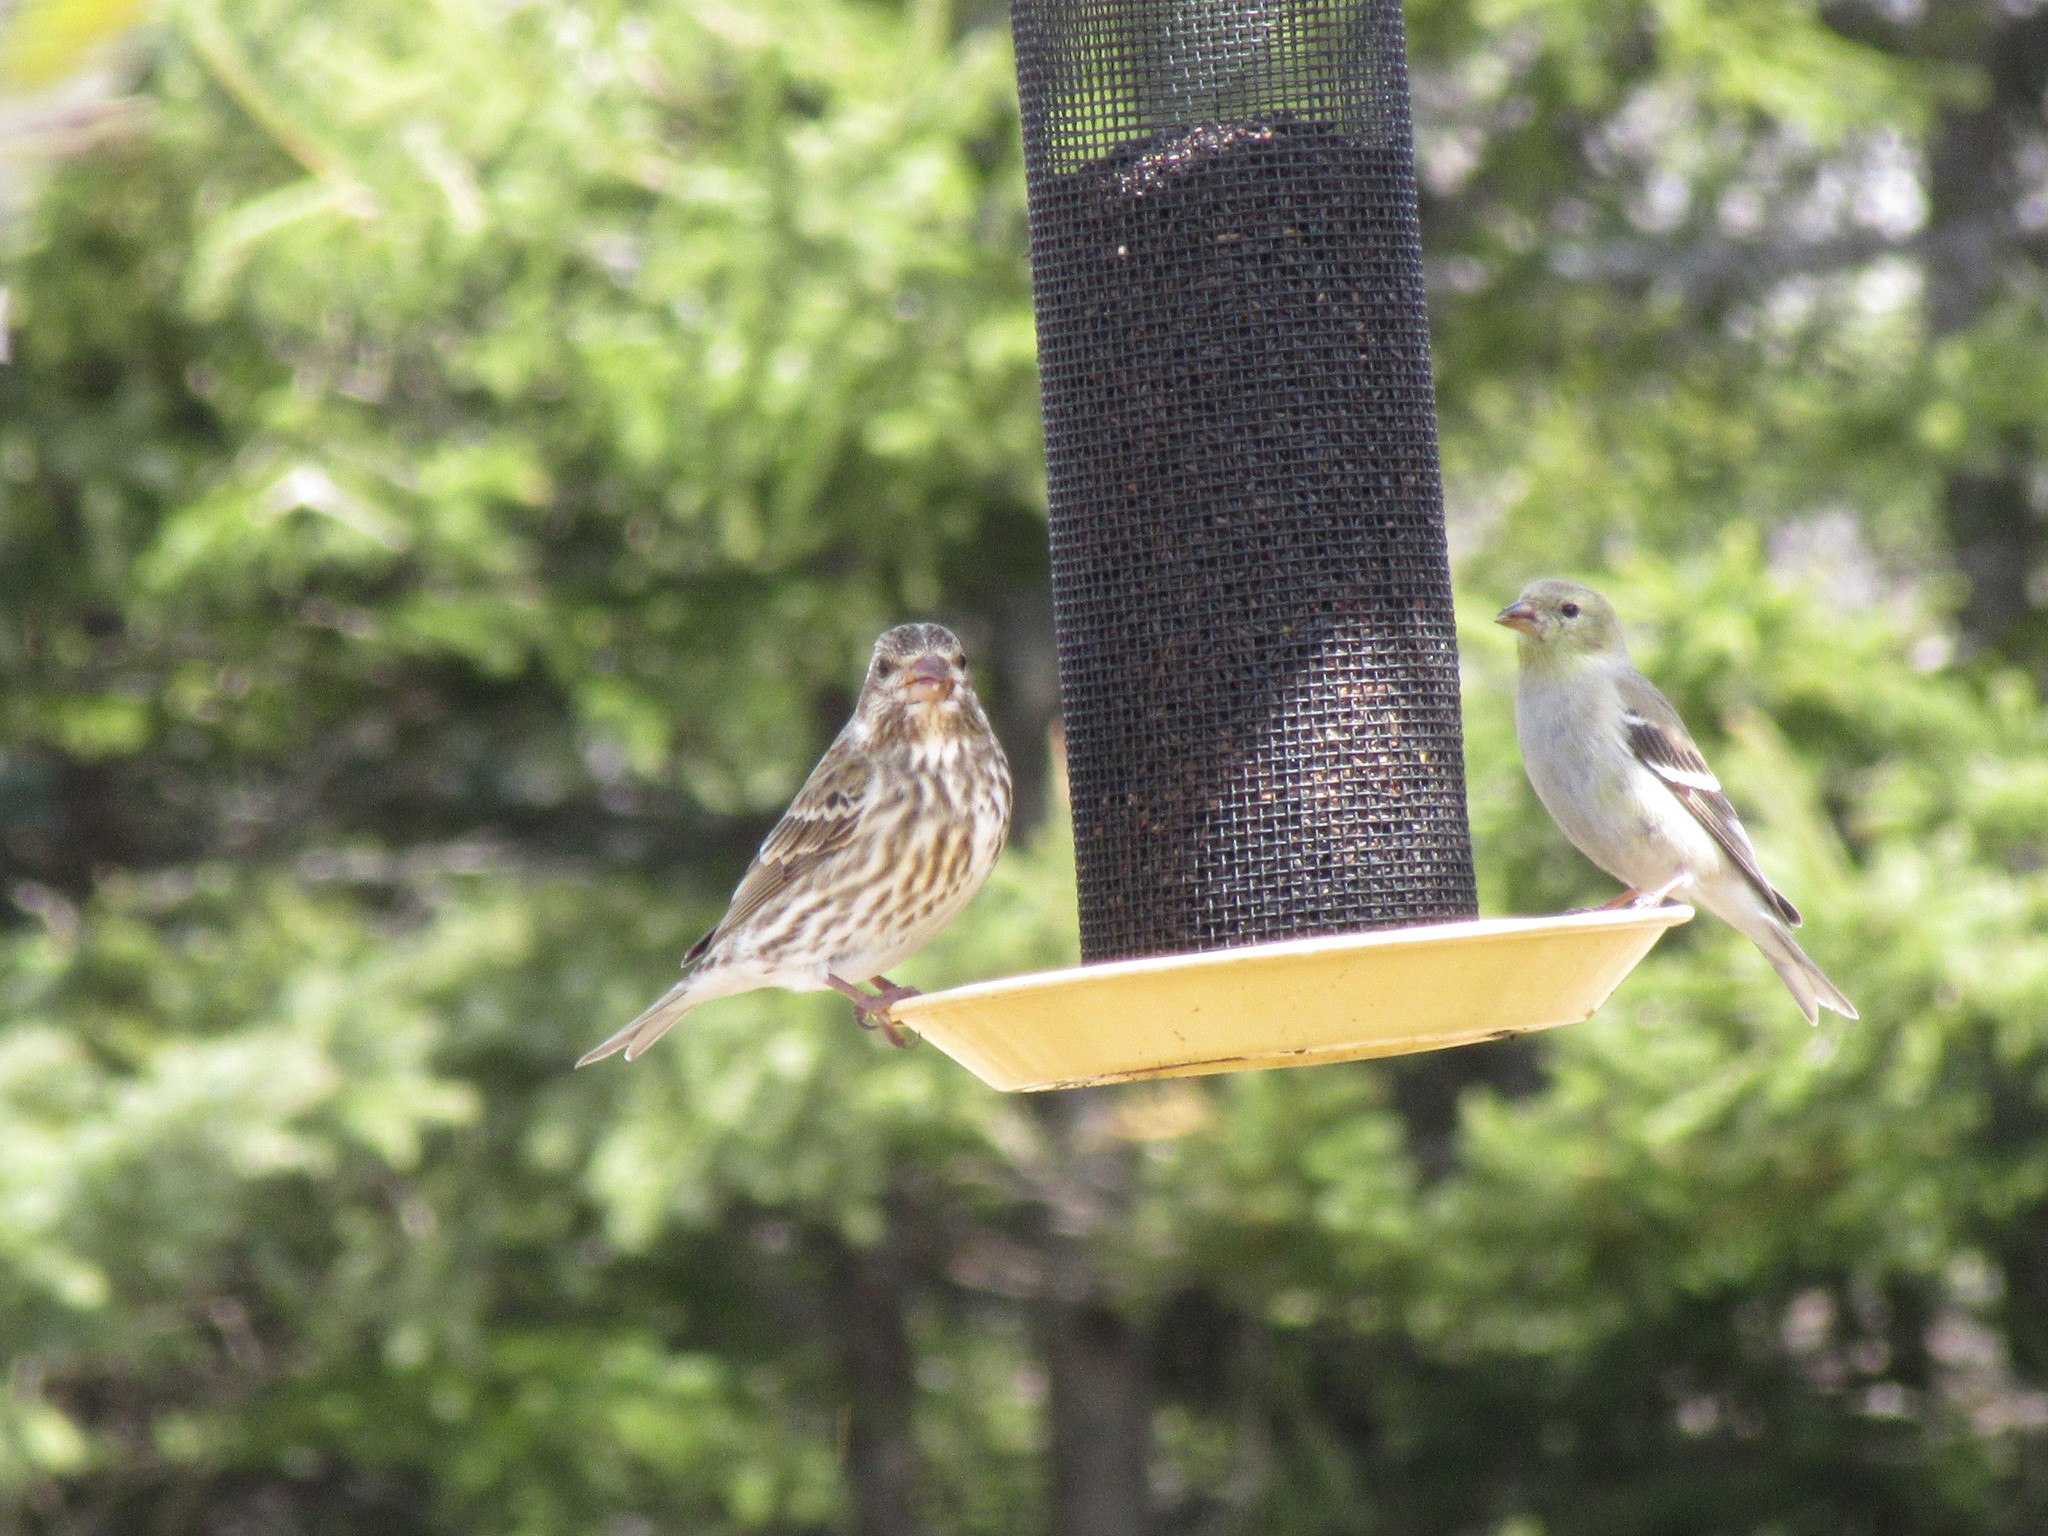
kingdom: Animalia
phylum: Chordata
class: Aves
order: Passeriformes
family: Fringillidae
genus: Spinus
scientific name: Spinus tristis
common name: American goldfinch
